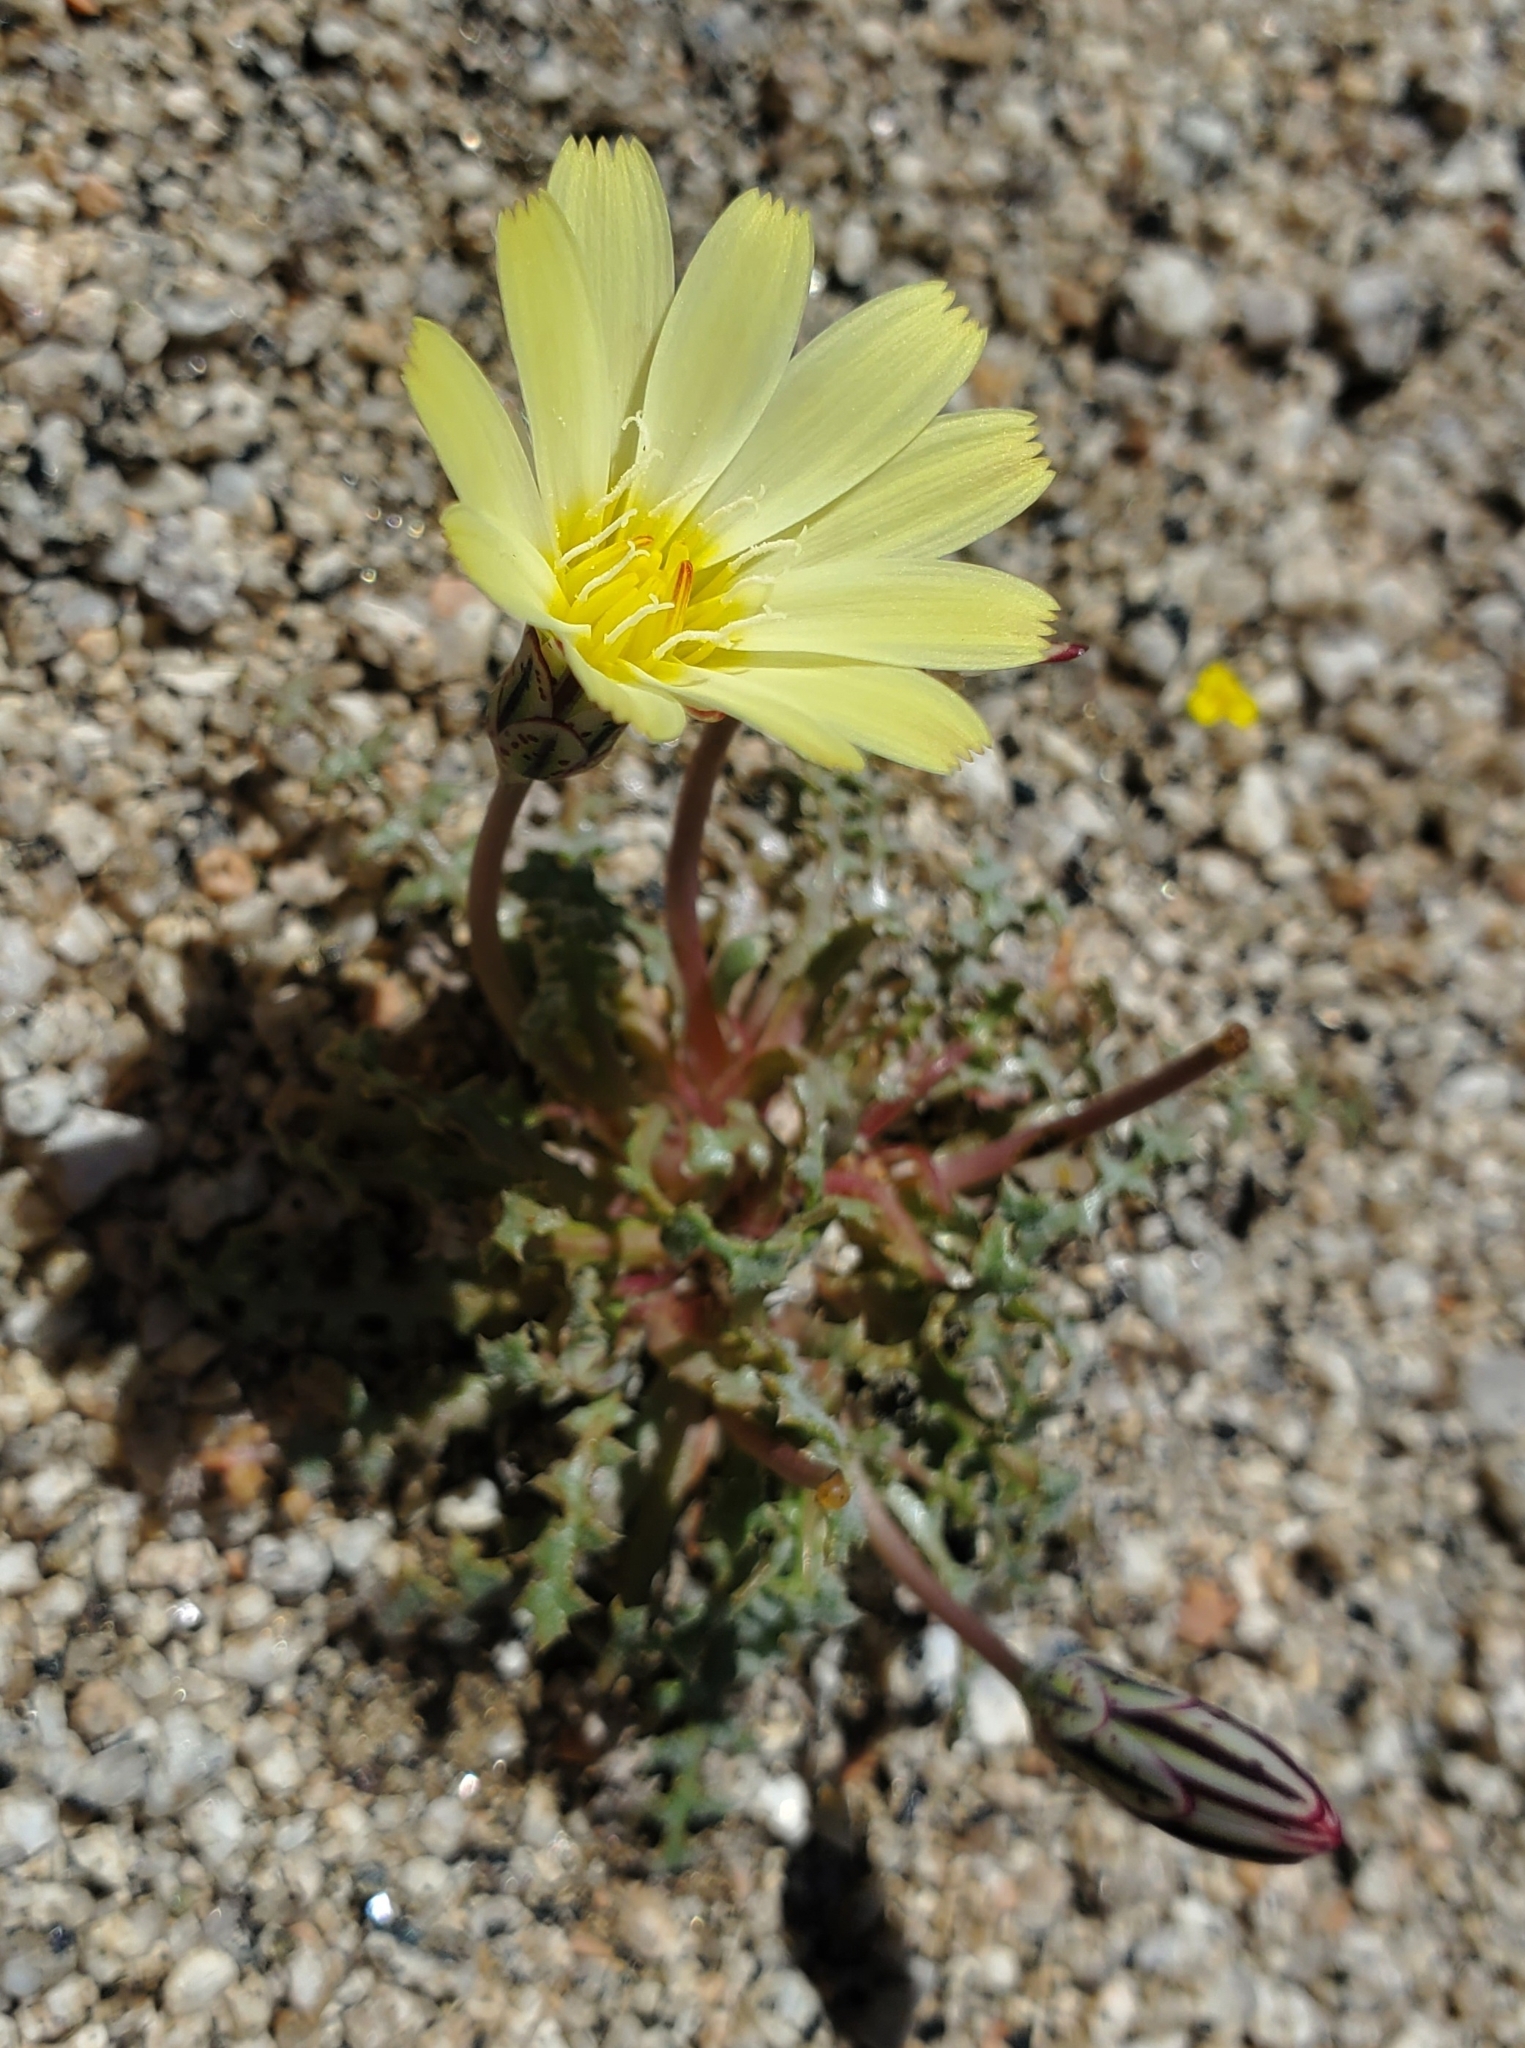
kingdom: Plantae
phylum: Tracheophyta
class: Magnoliopsida
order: Asterales
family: Asteraceae
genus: Anisocoma
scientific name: Anisocoma acaulis
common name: Scalebud
